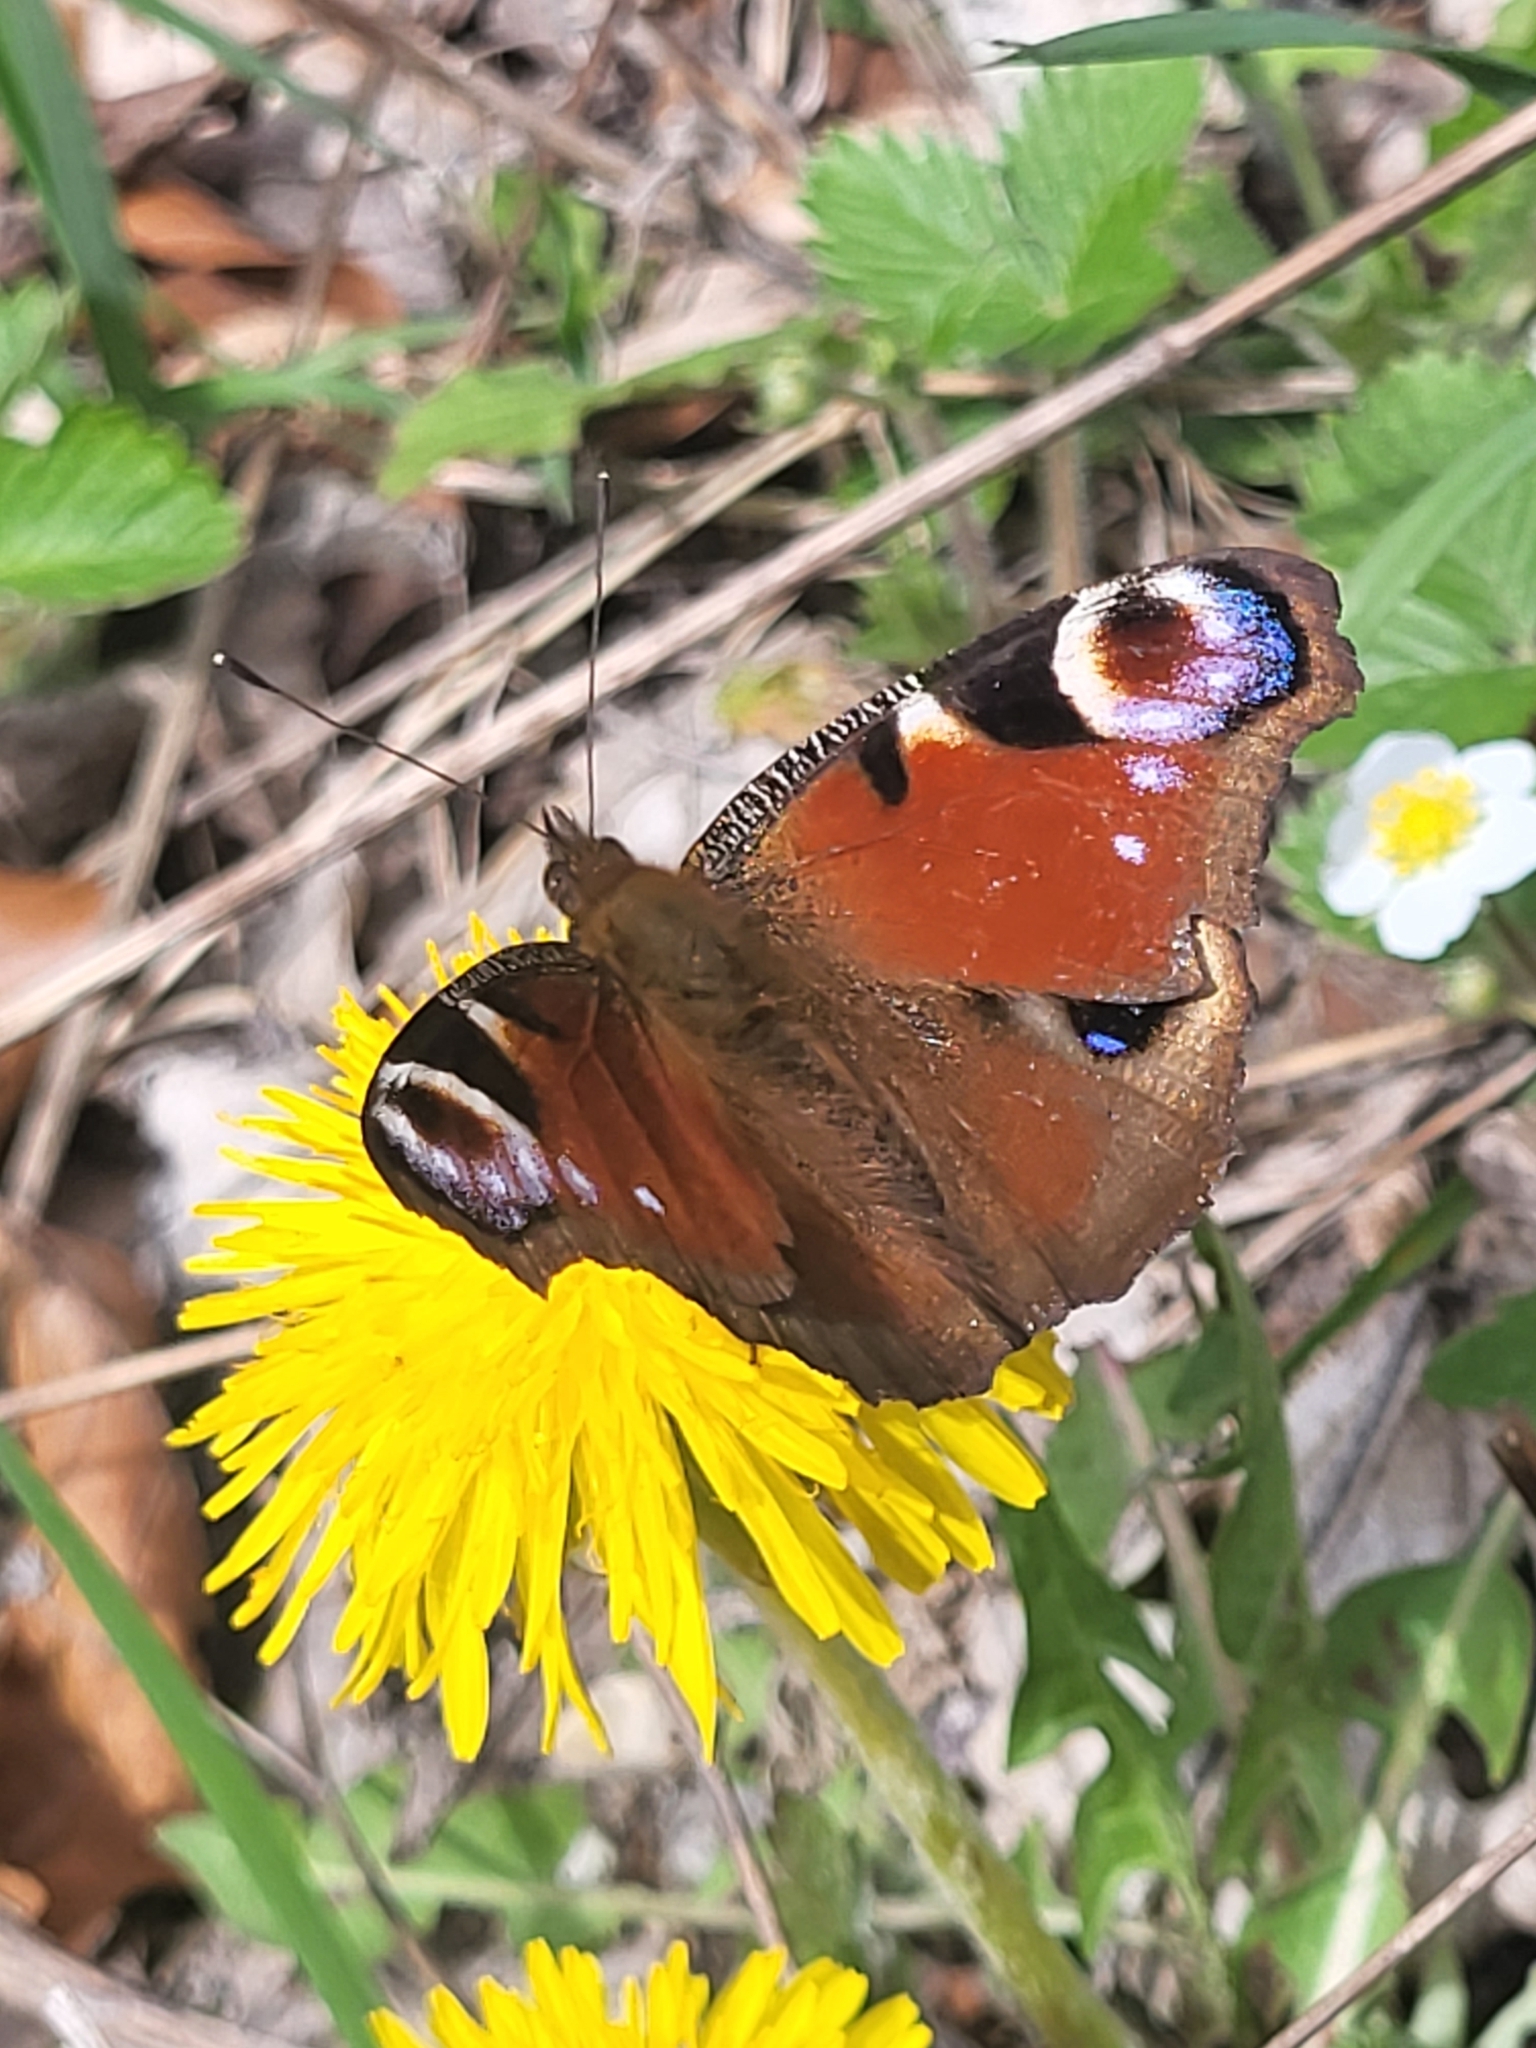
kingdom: Animalia
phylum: Arthropoda
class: Insecta
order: Lepidoptera
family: Nymphalidae
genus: Aglais
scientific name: Aglais io
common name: Peacock
